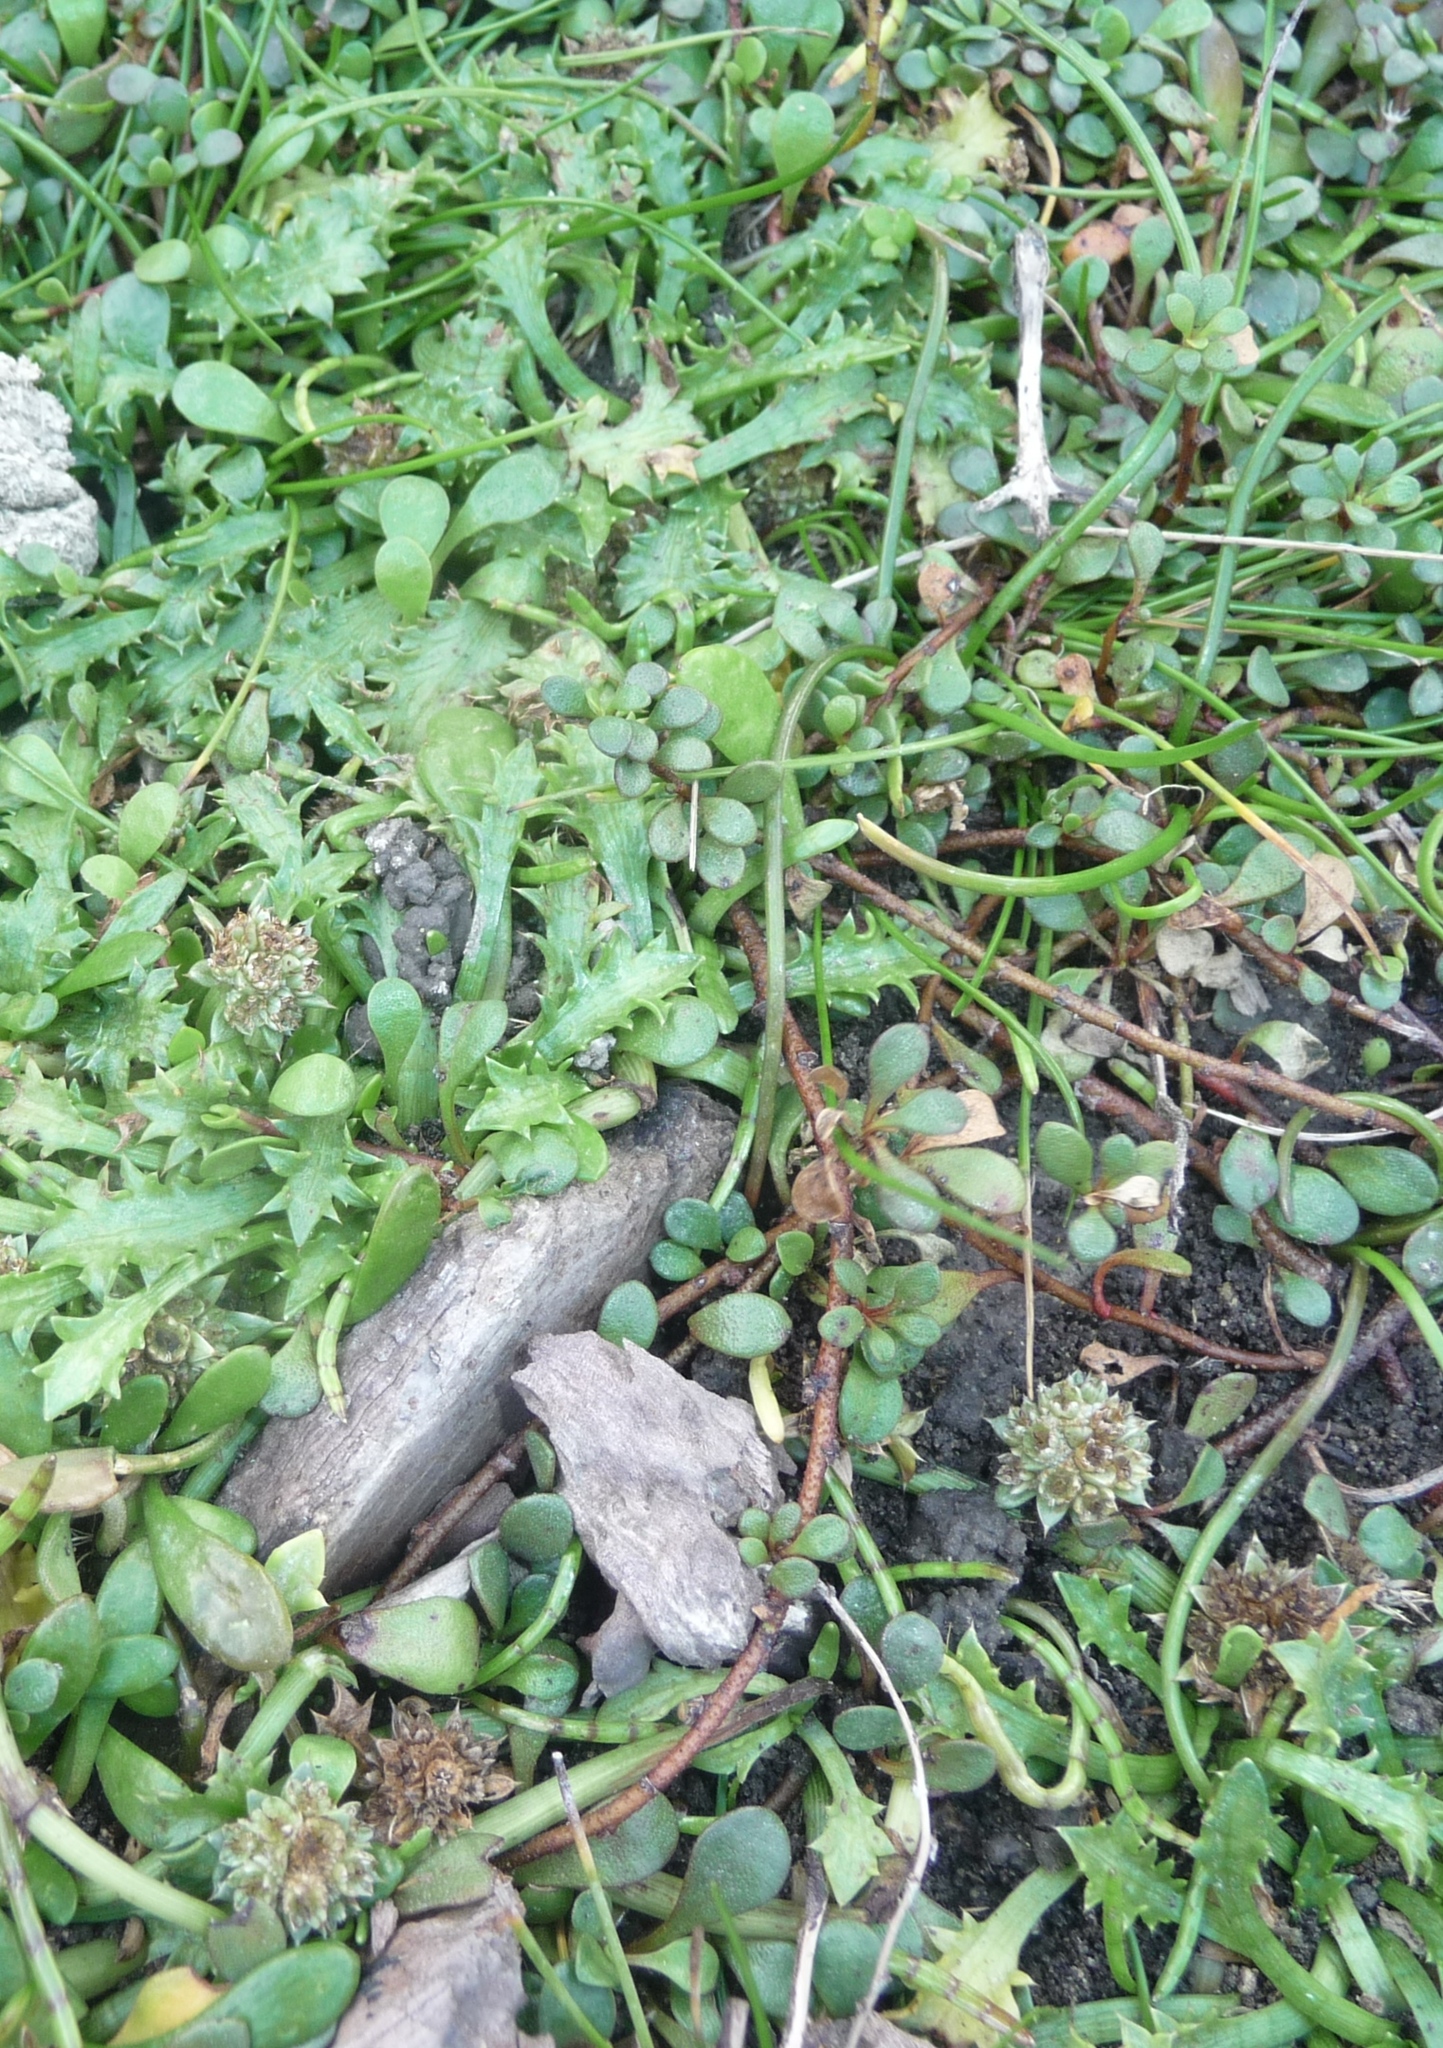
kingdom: Plantae
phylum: Tracheophyta
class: Magnoliopsida
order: Apiales
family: Apiaceae
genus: Eryngium
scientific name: Eryngium vesiculosum
